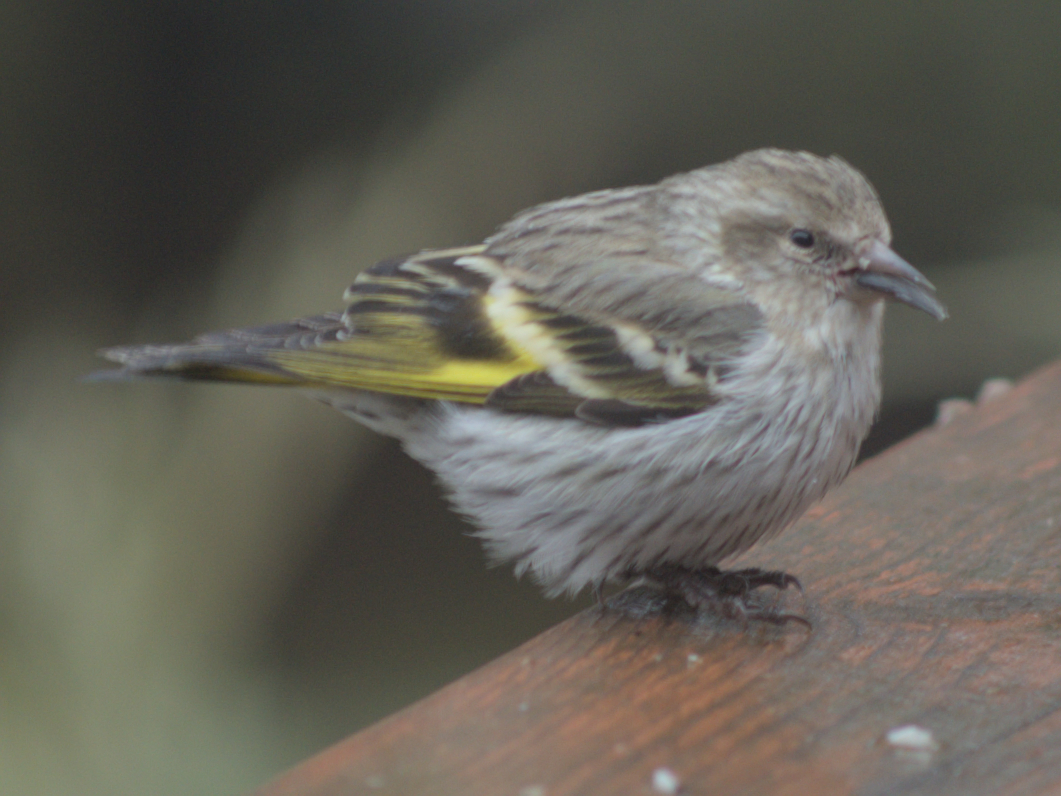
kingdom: Animalia
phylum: Chordata
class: Aves
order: Passeriformes
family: Fringillidae
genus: Spinus
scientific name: Spinus pinus
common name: Pine siskin
